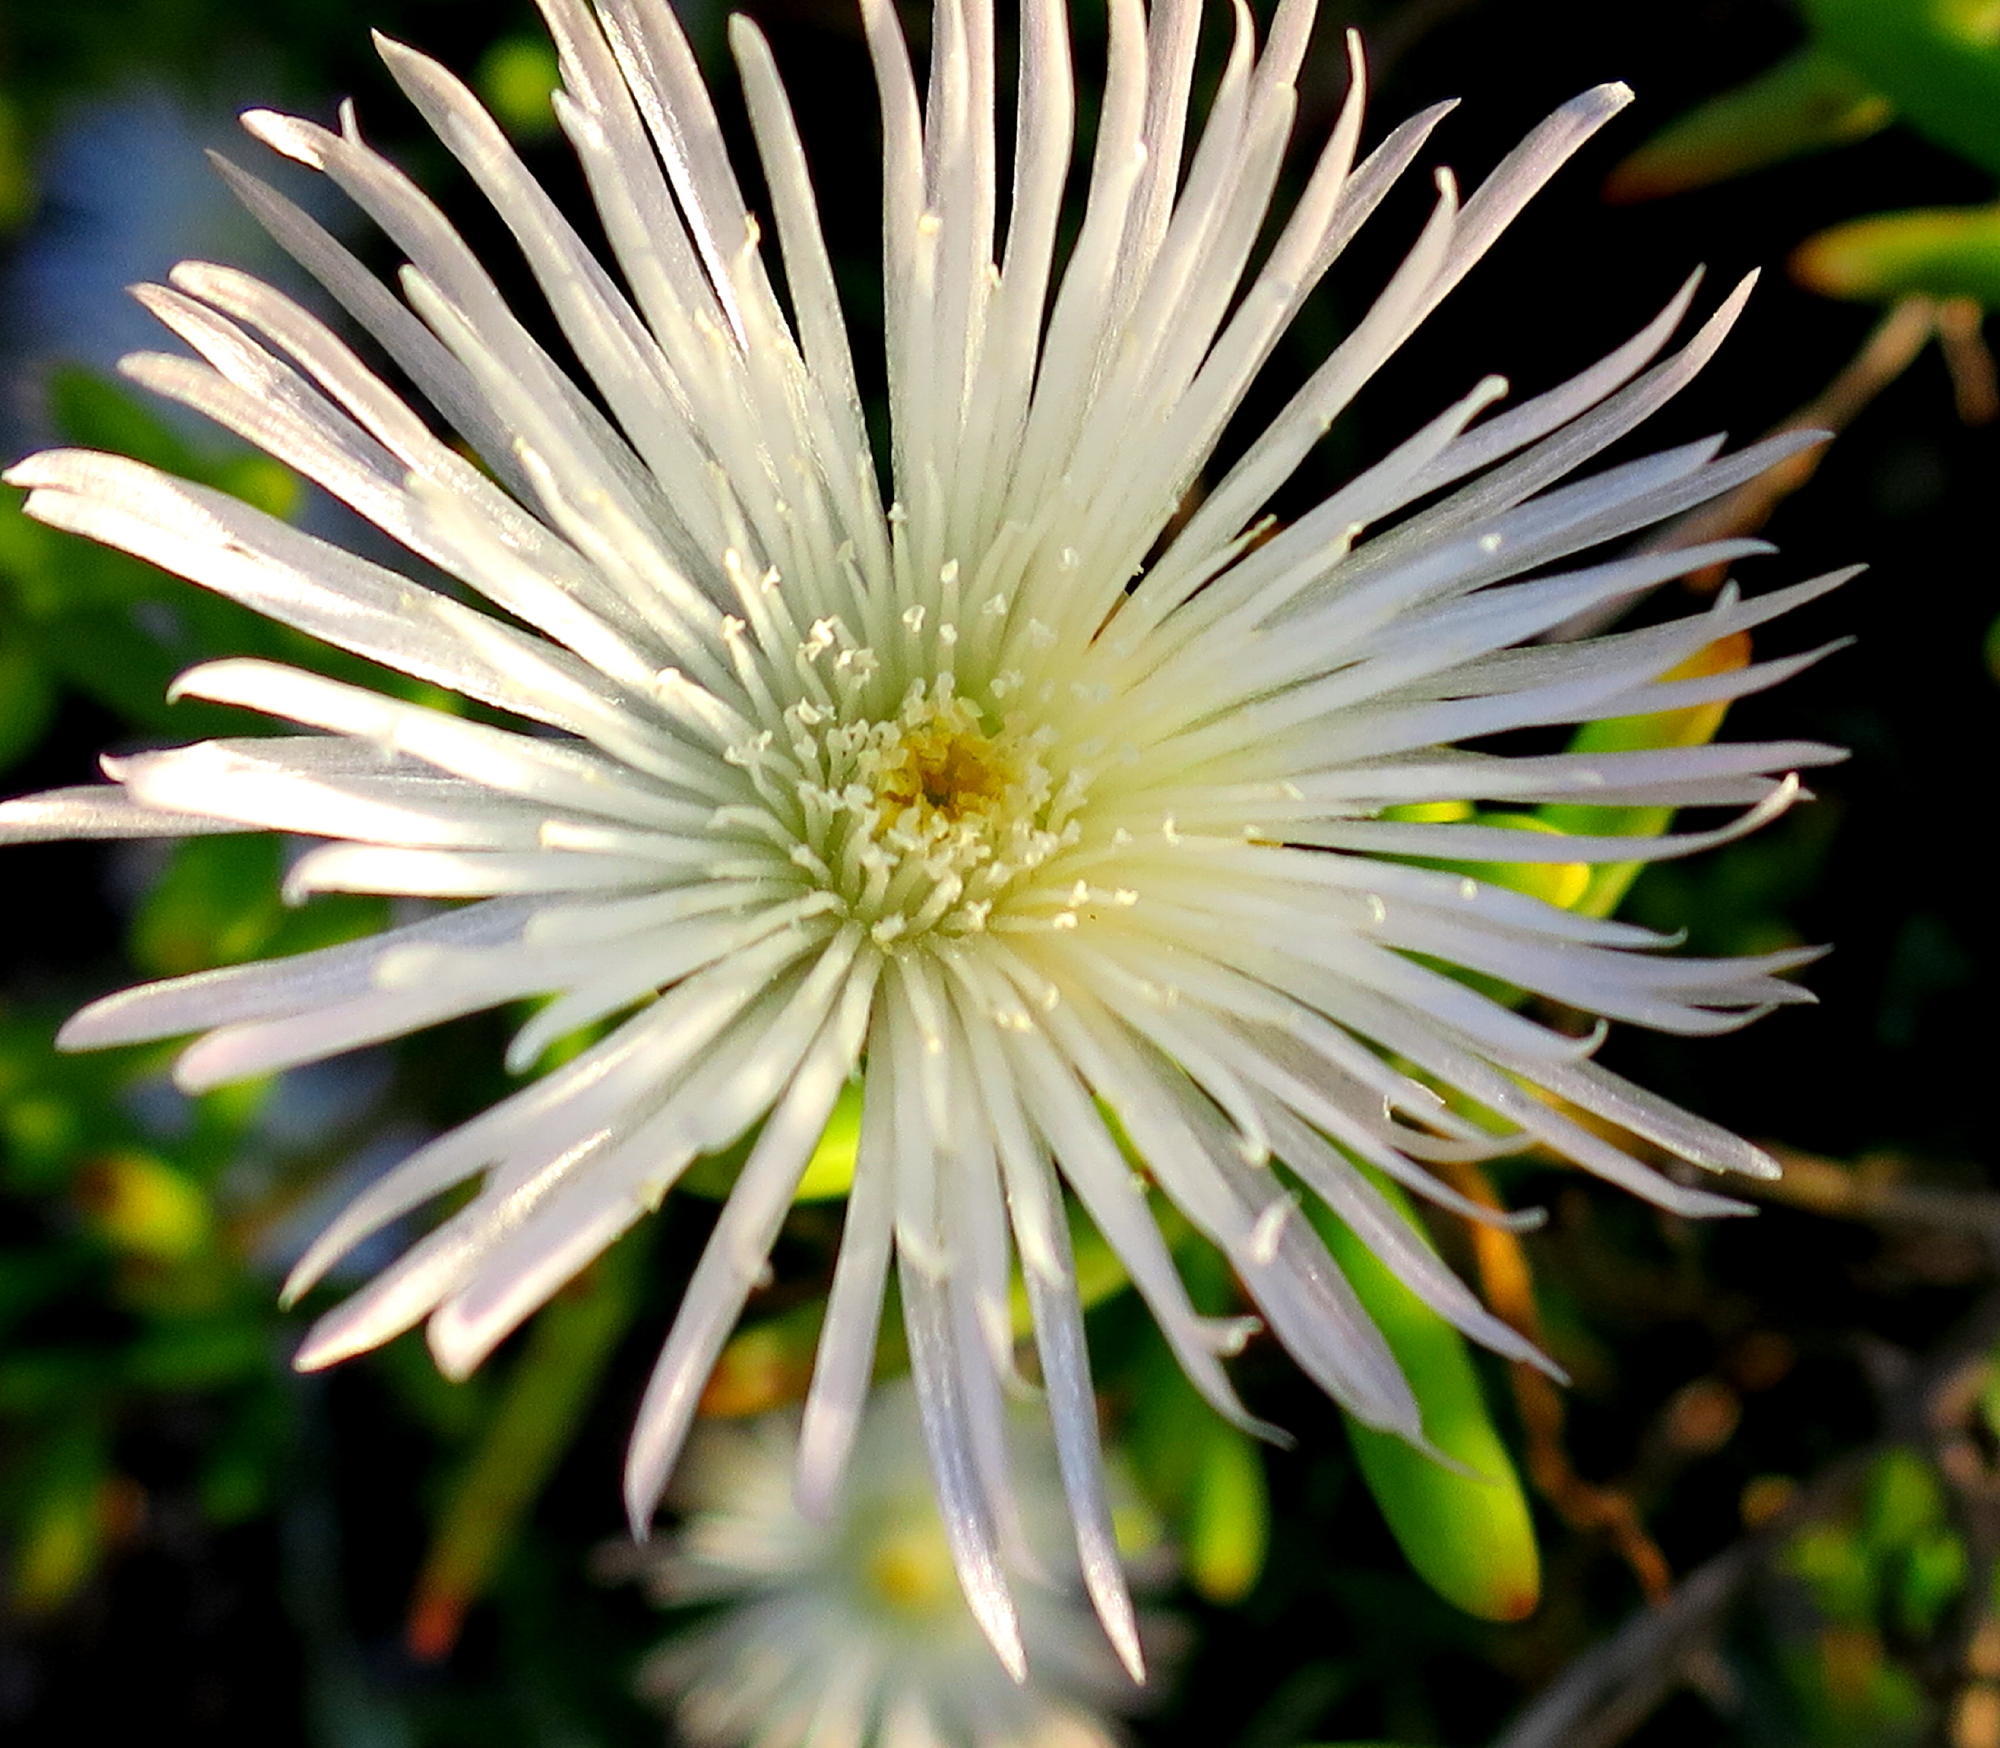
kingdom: Plantae
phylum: Tracheophyta
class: Magnoliopsida
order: Caryophyllales
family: Aizoaceae
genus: Mesembryanthemum
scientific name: Mesembryanthemum splendens
